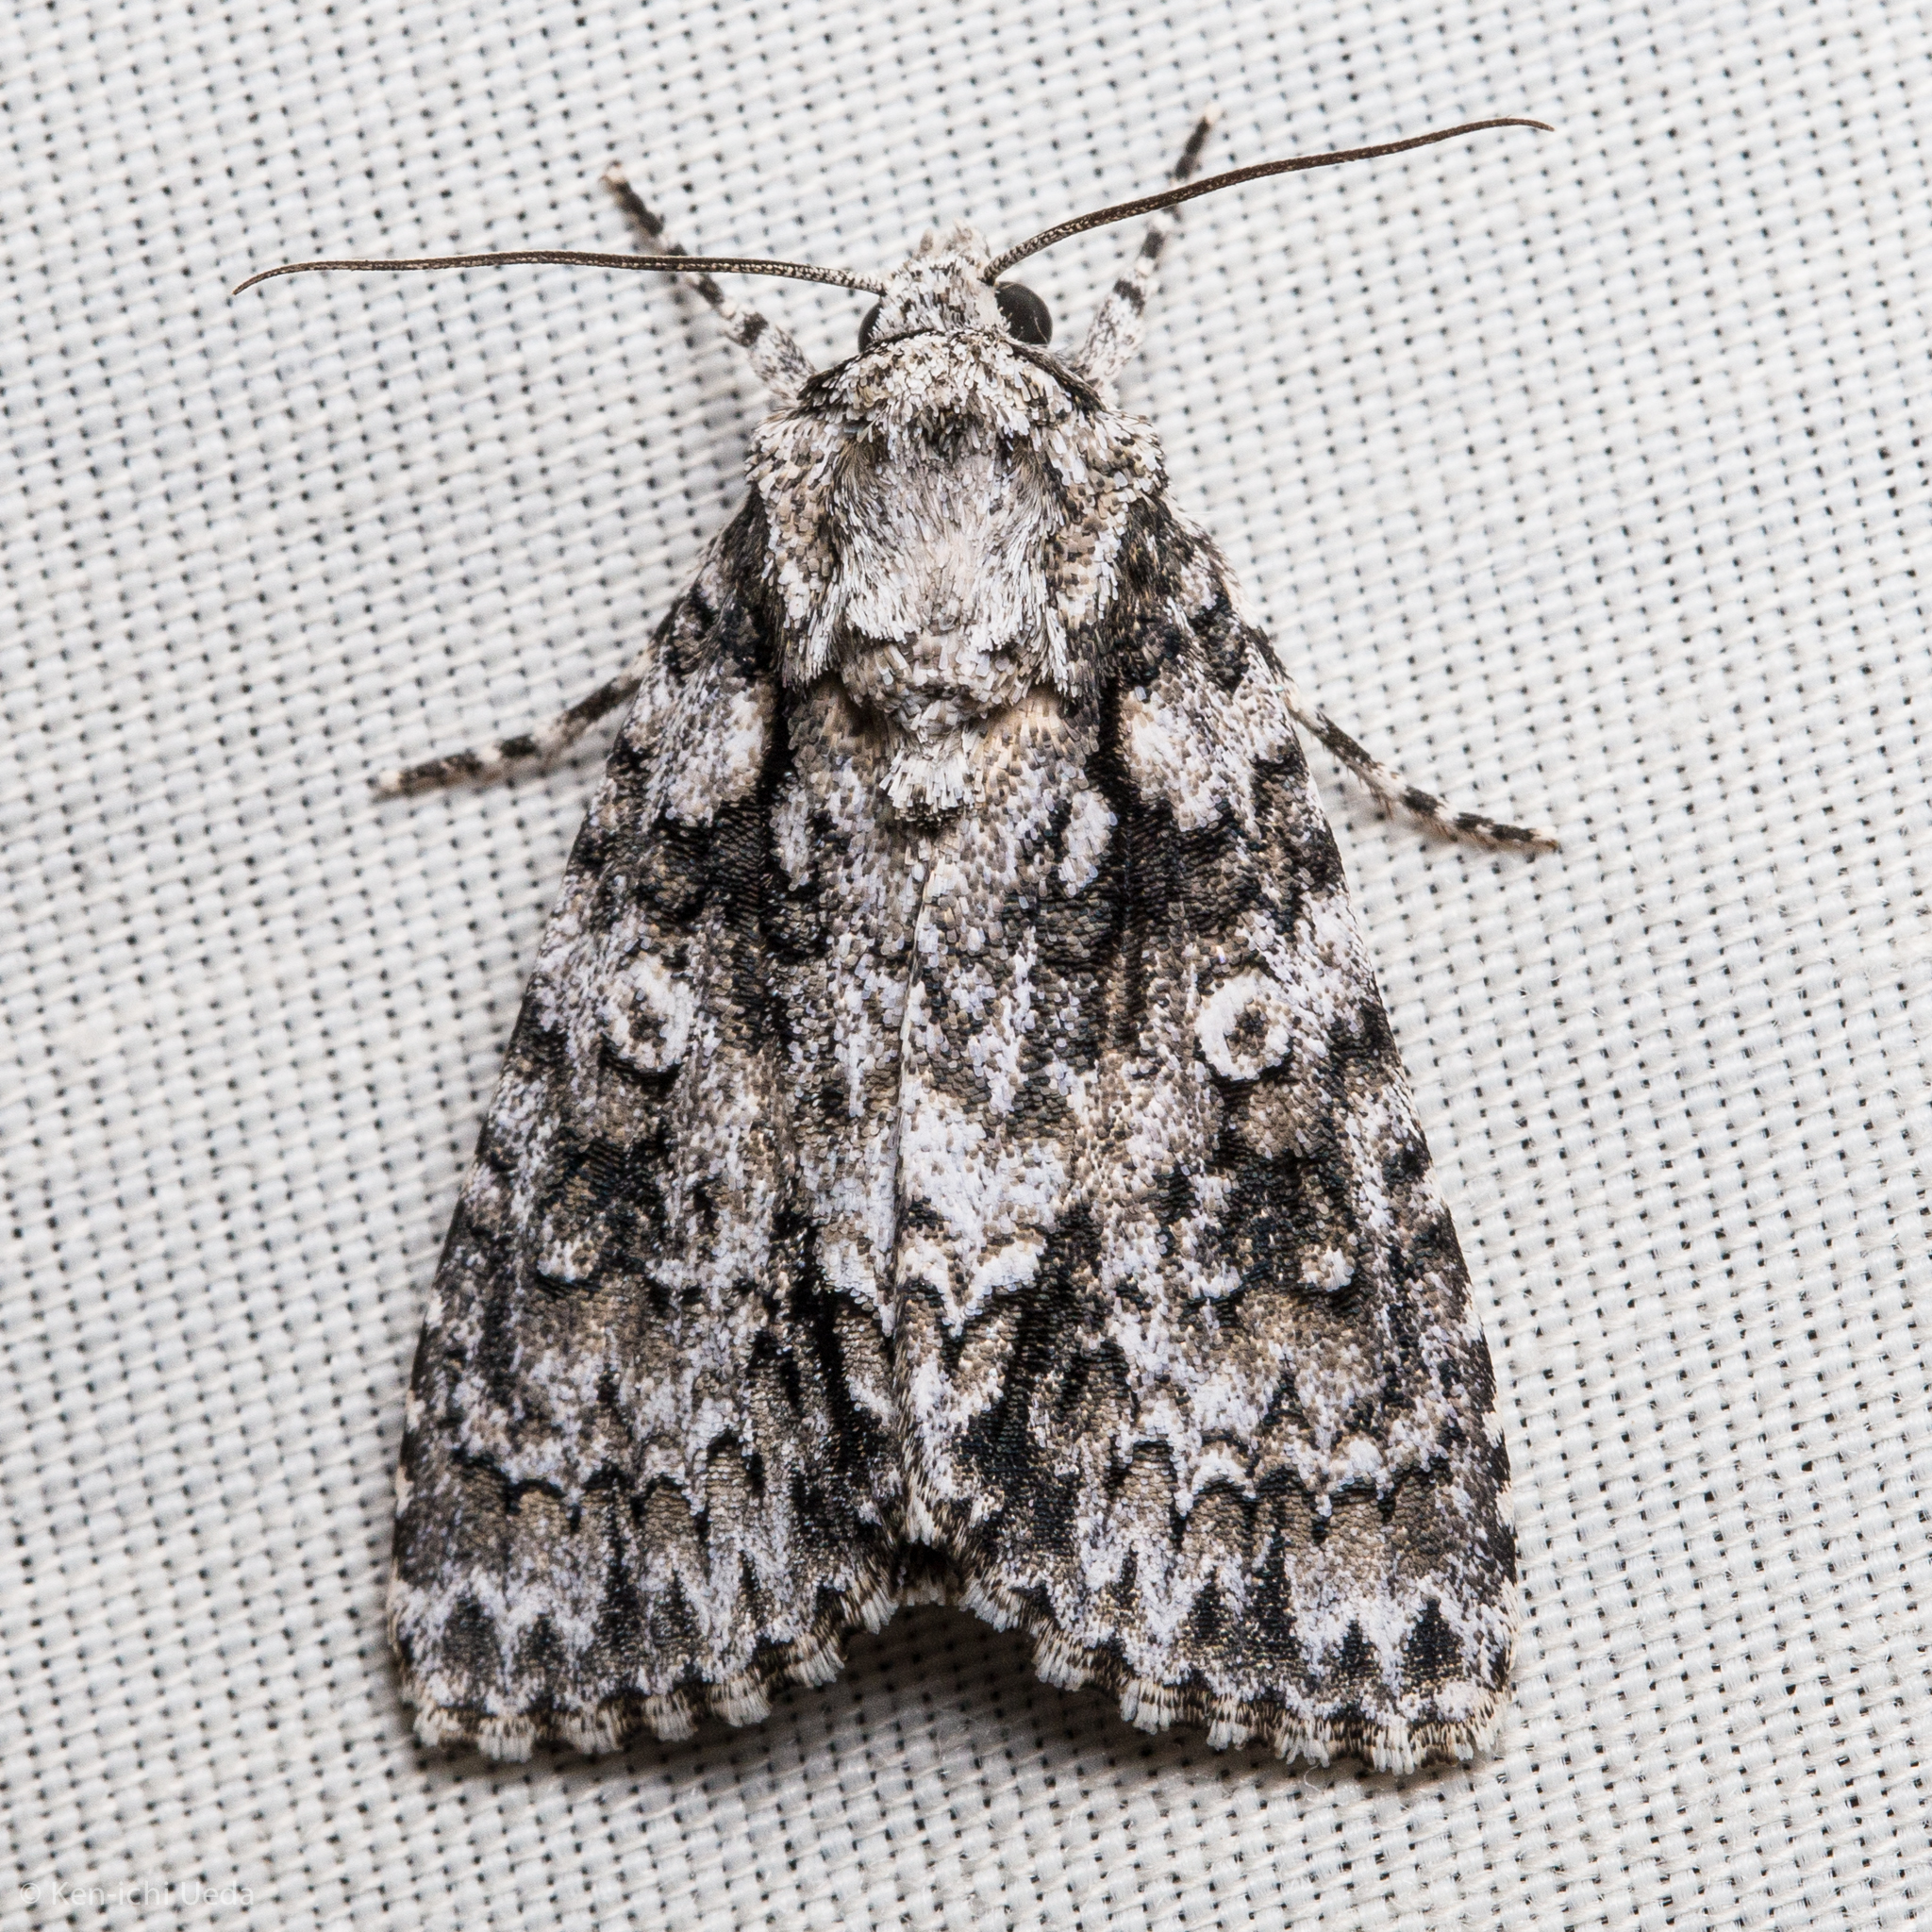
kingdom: Animalia
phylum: Arthropoda
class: Insecta
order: Lepidoptera
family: Noctuidae
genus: Acronicta
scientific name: Acronicta marmorata
